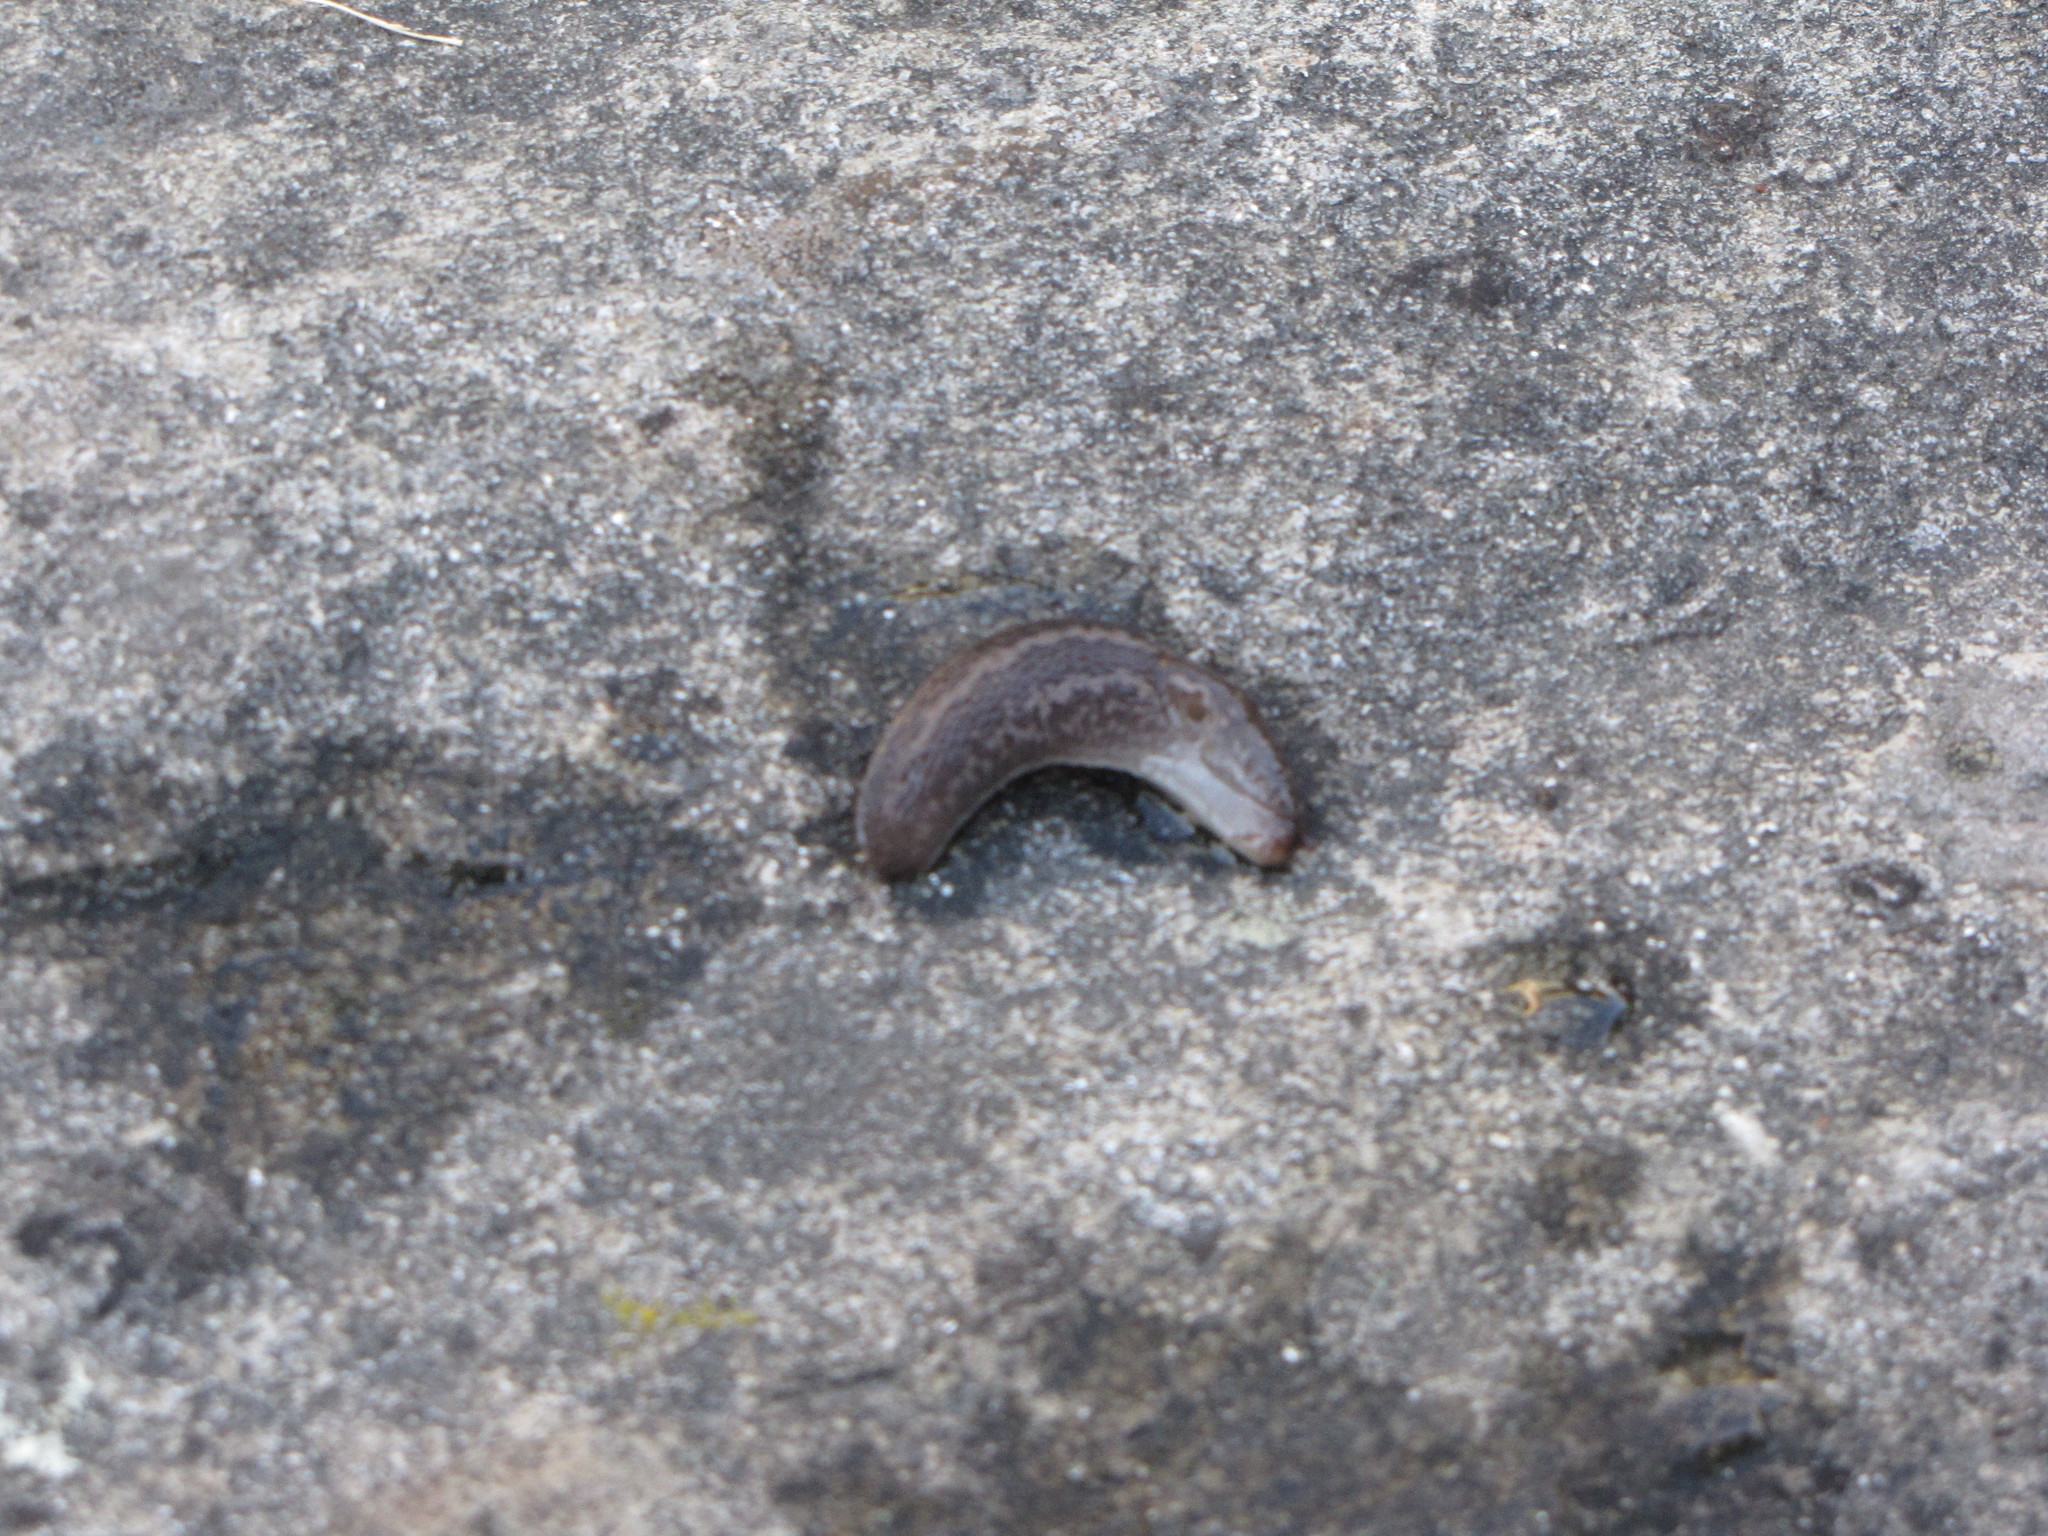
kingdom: Animalia
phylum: Mollusca
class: Gastropoda
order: Stylommatophora
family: Limacidae
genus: Limax
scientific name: Limax maximus
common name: Great grey slug
